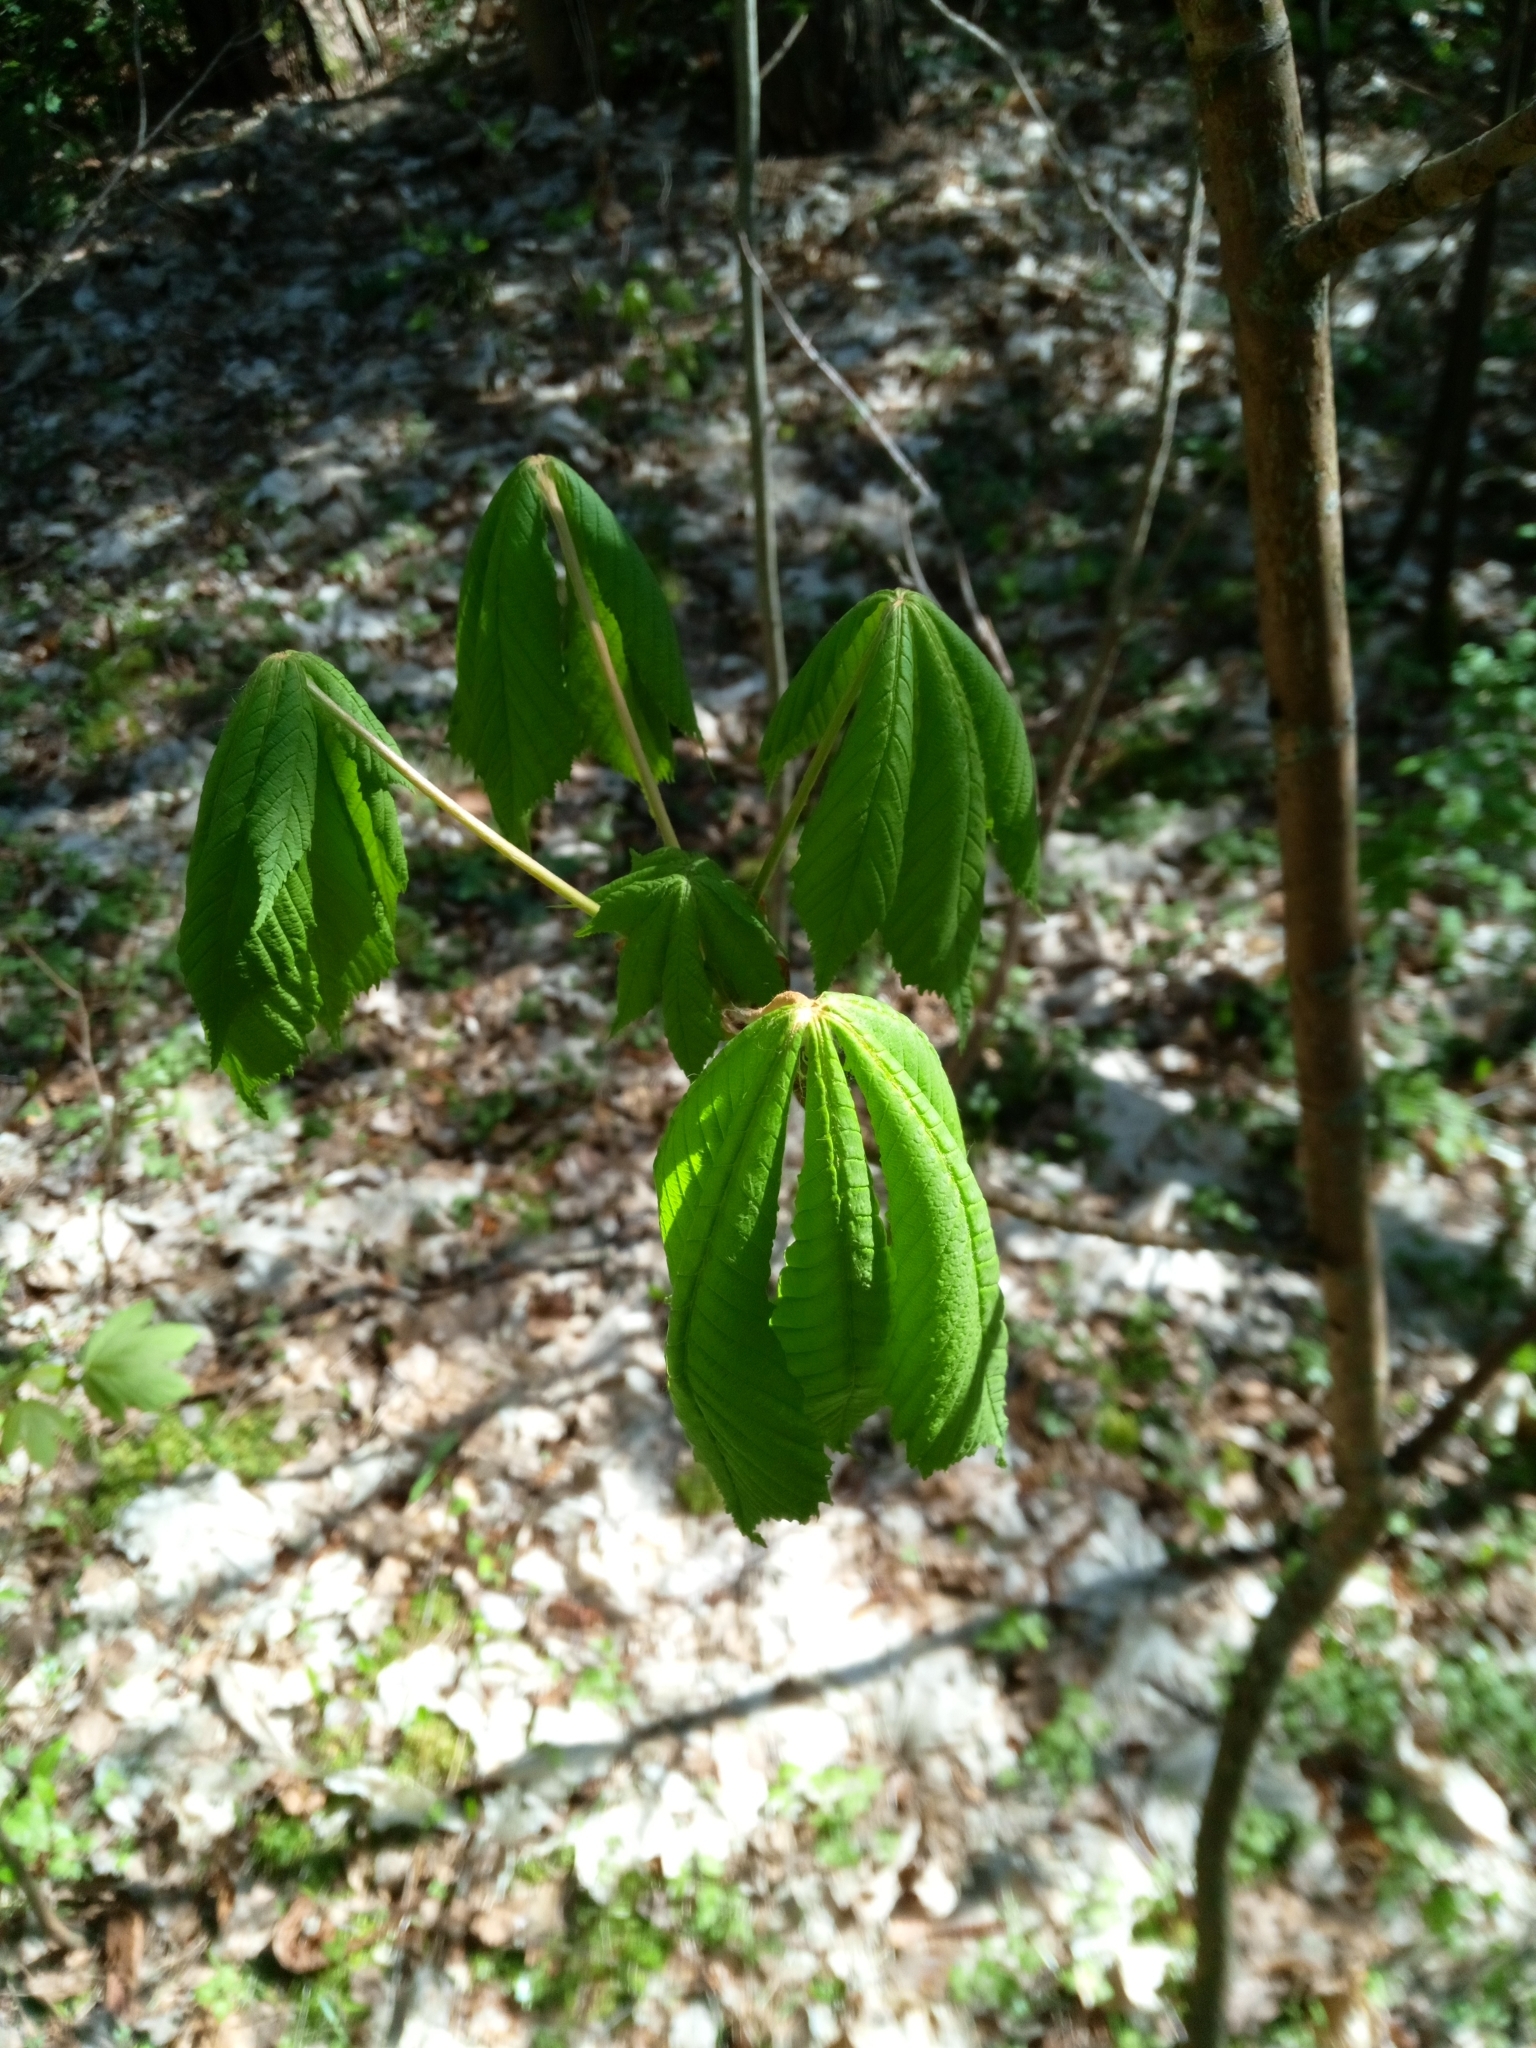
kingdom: Plantae
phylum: Tracheophyta
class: Magnoliopsida
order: Sapindales
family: Sapindaceae
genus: Aesculus
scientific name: Aesculus hippocastanum
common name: Horse-chestnut
